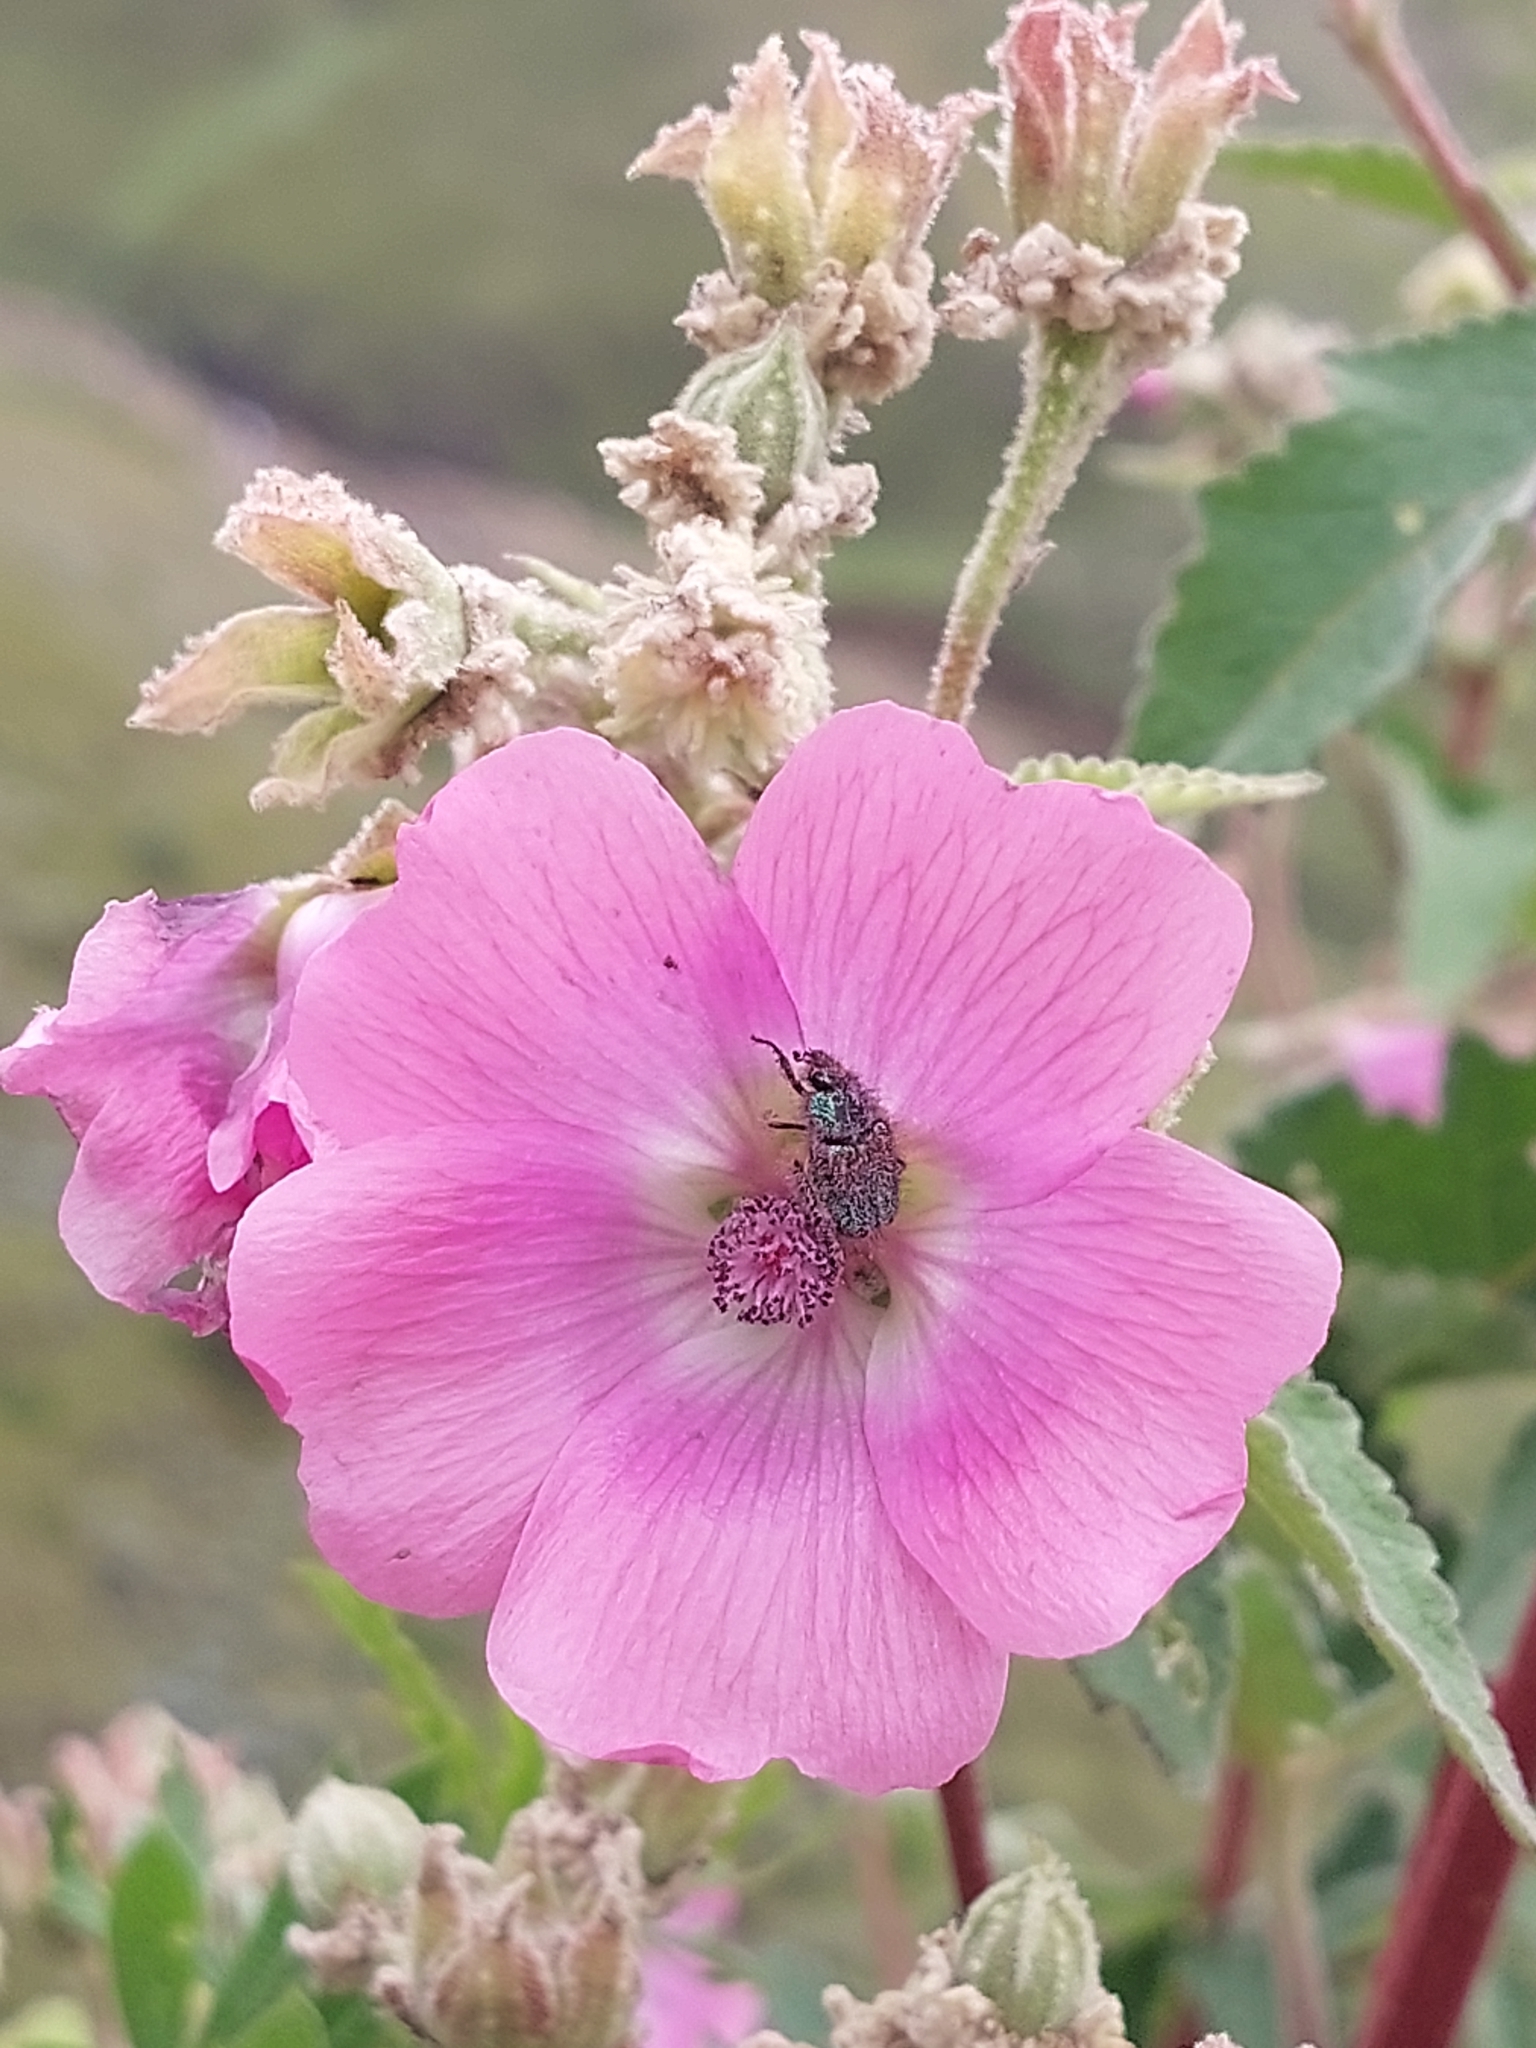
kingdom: Plantae
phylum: Tracheophyta
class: Magnoliopsida
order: Malvales
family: Malvaceae
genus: Anisodontea
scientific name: Anisodontea julii
